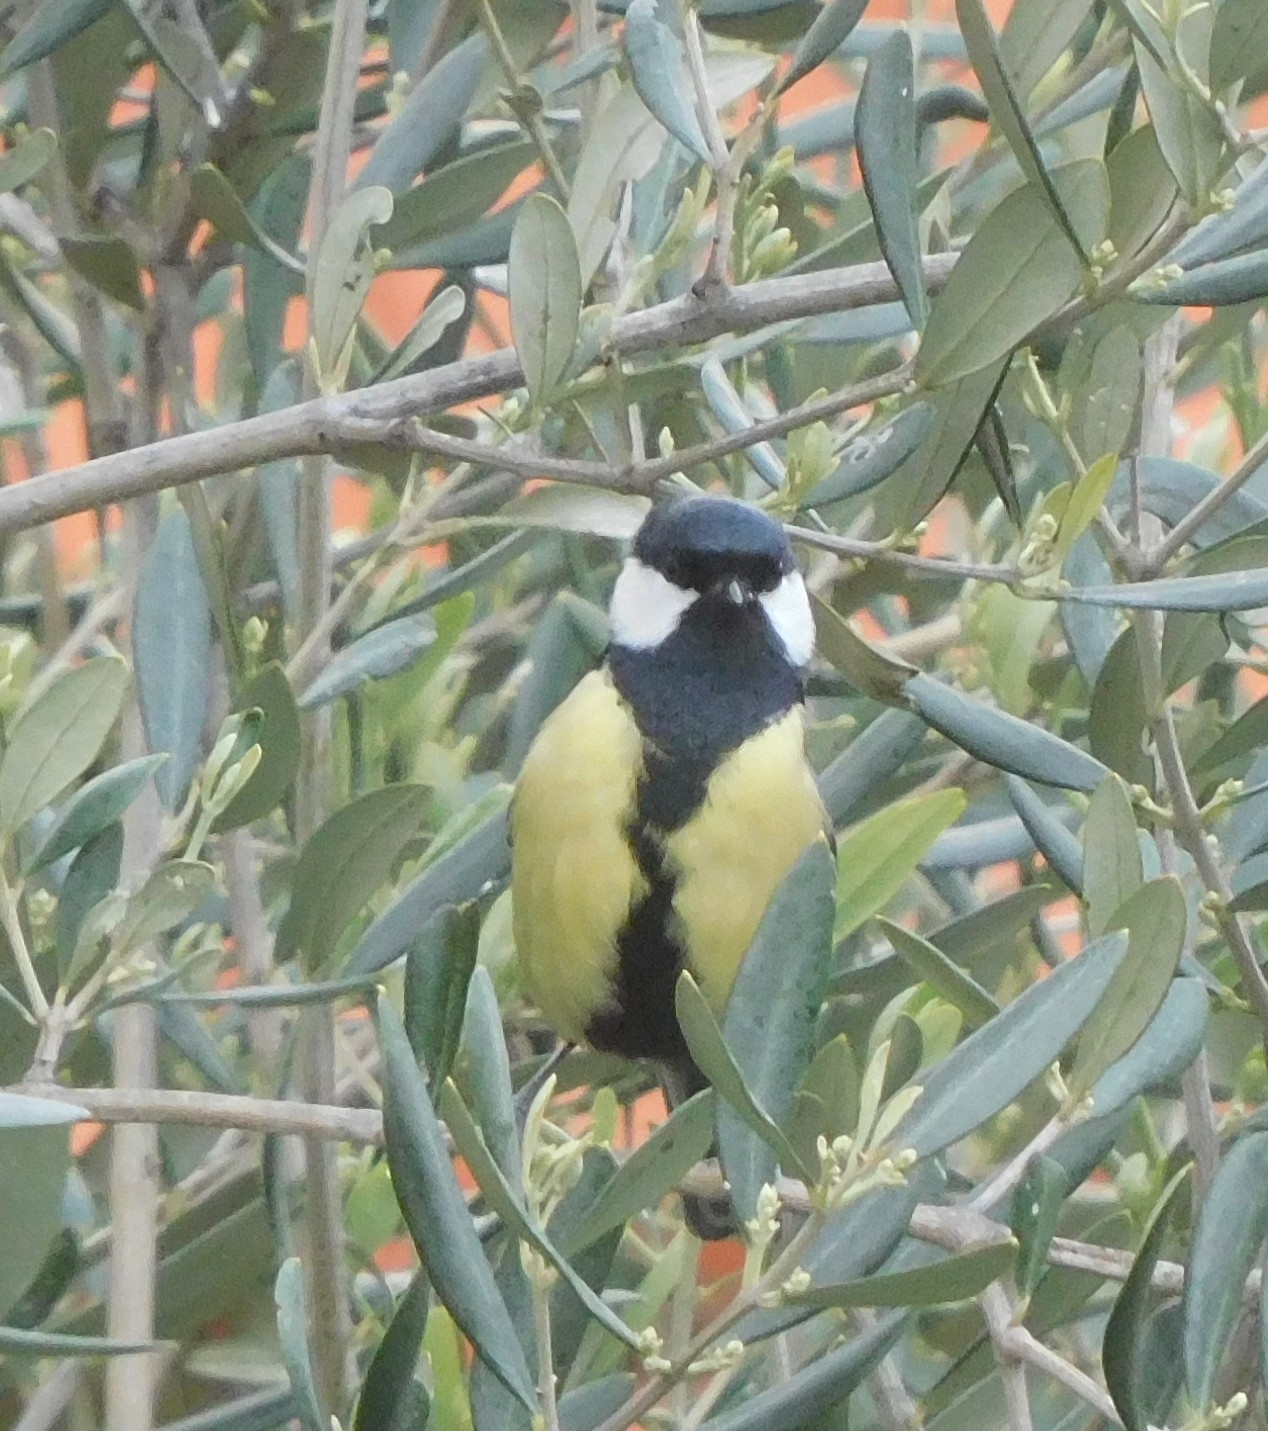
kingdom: Animalia
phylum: Chordata
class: Aves
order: Passeriformes
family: Paridae
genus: Parus
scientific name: Parus major
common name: Great tit
